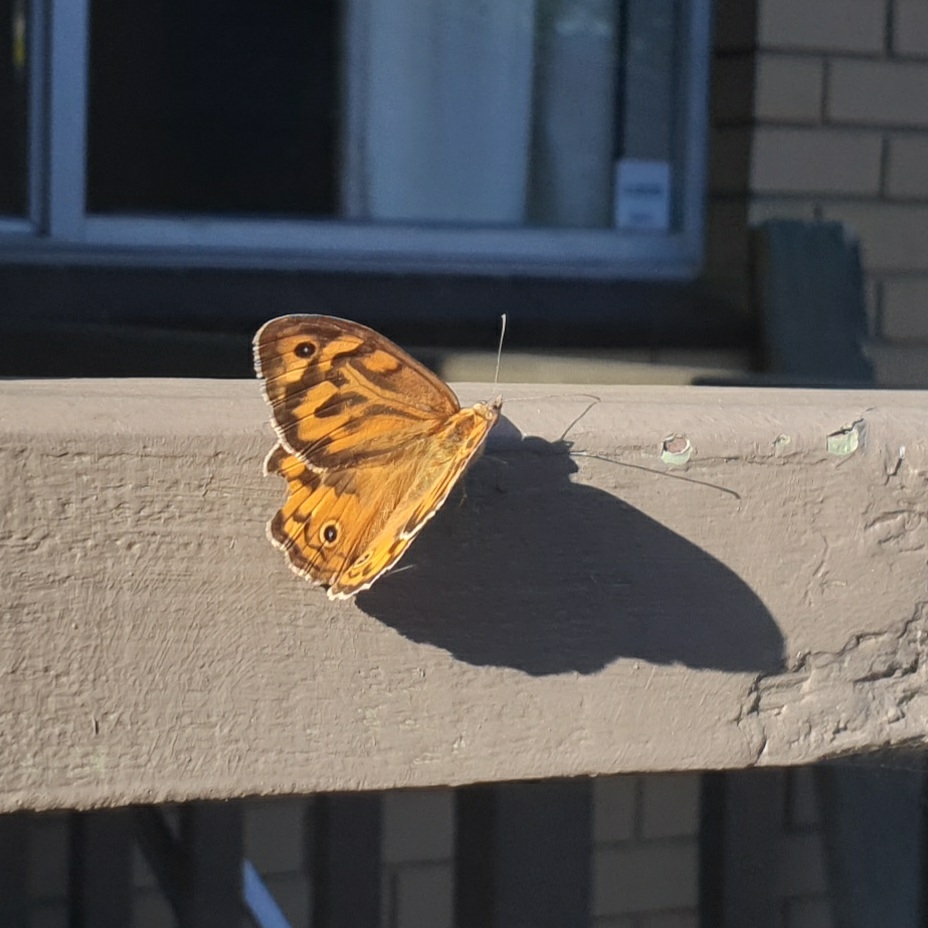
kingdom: Animalia
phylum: Arthropoda
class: Insecta
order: Lepidoptera
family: Nymphalidae
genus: Heteronympha
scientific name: Heteronympha merope
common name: Common brown
